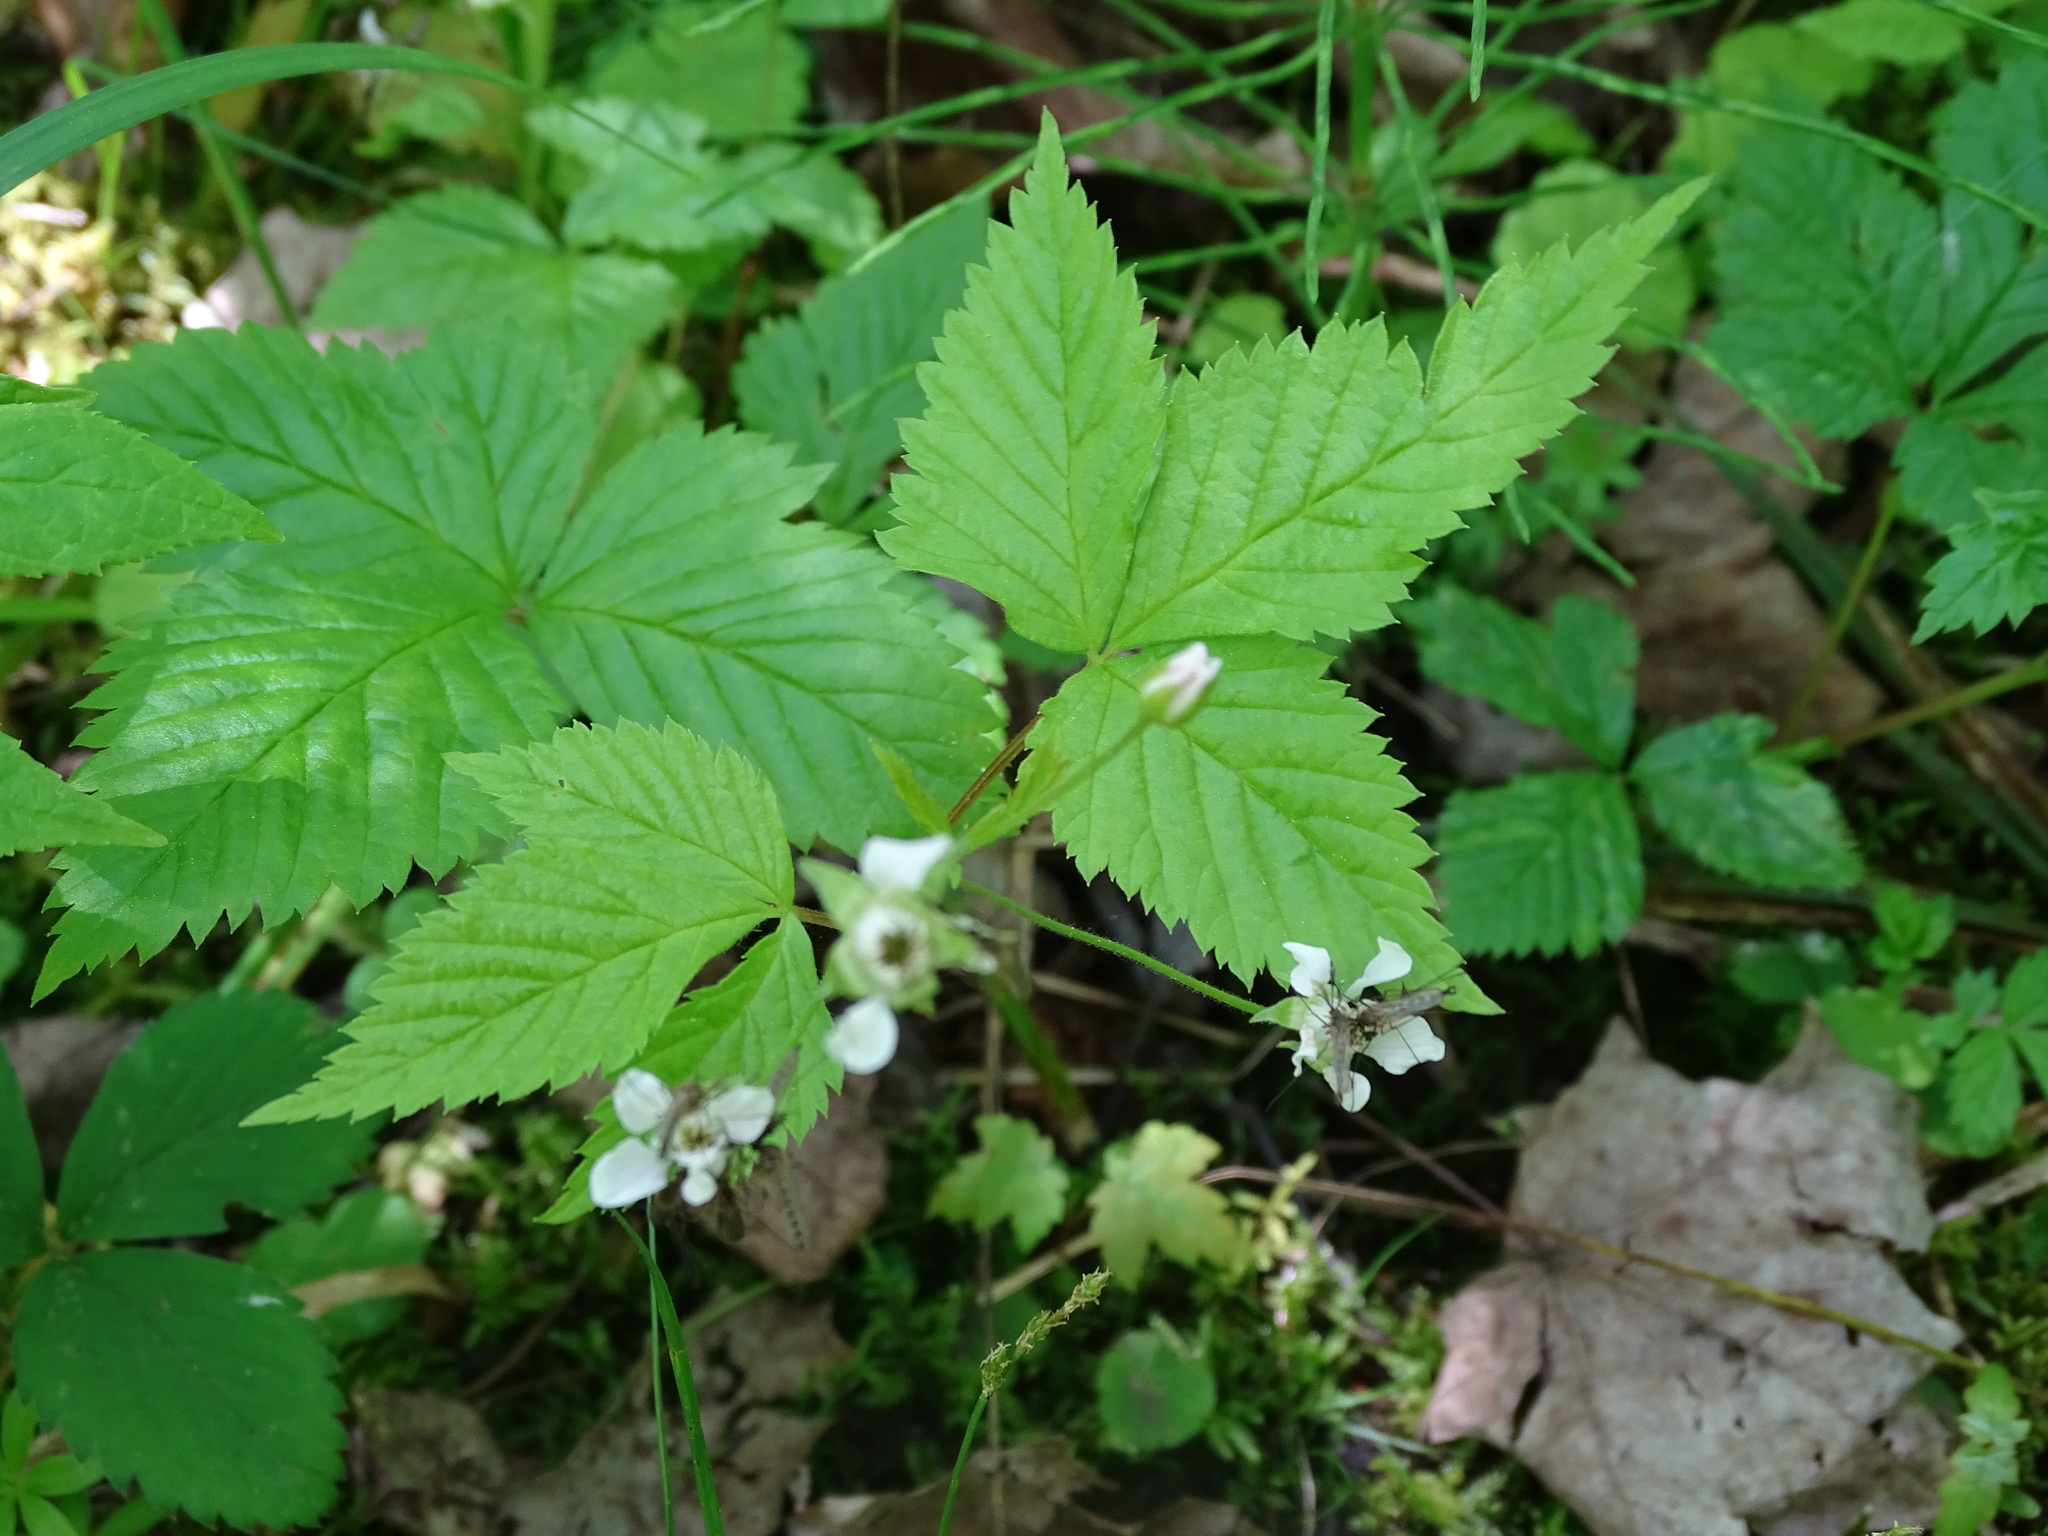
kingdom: Plantae
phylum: Tracheophyta
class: Magnoliopsida
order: Rosales
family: Rosaceae
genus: Rubus
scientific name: Rubus pubescens
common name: Dwarf raspberry
